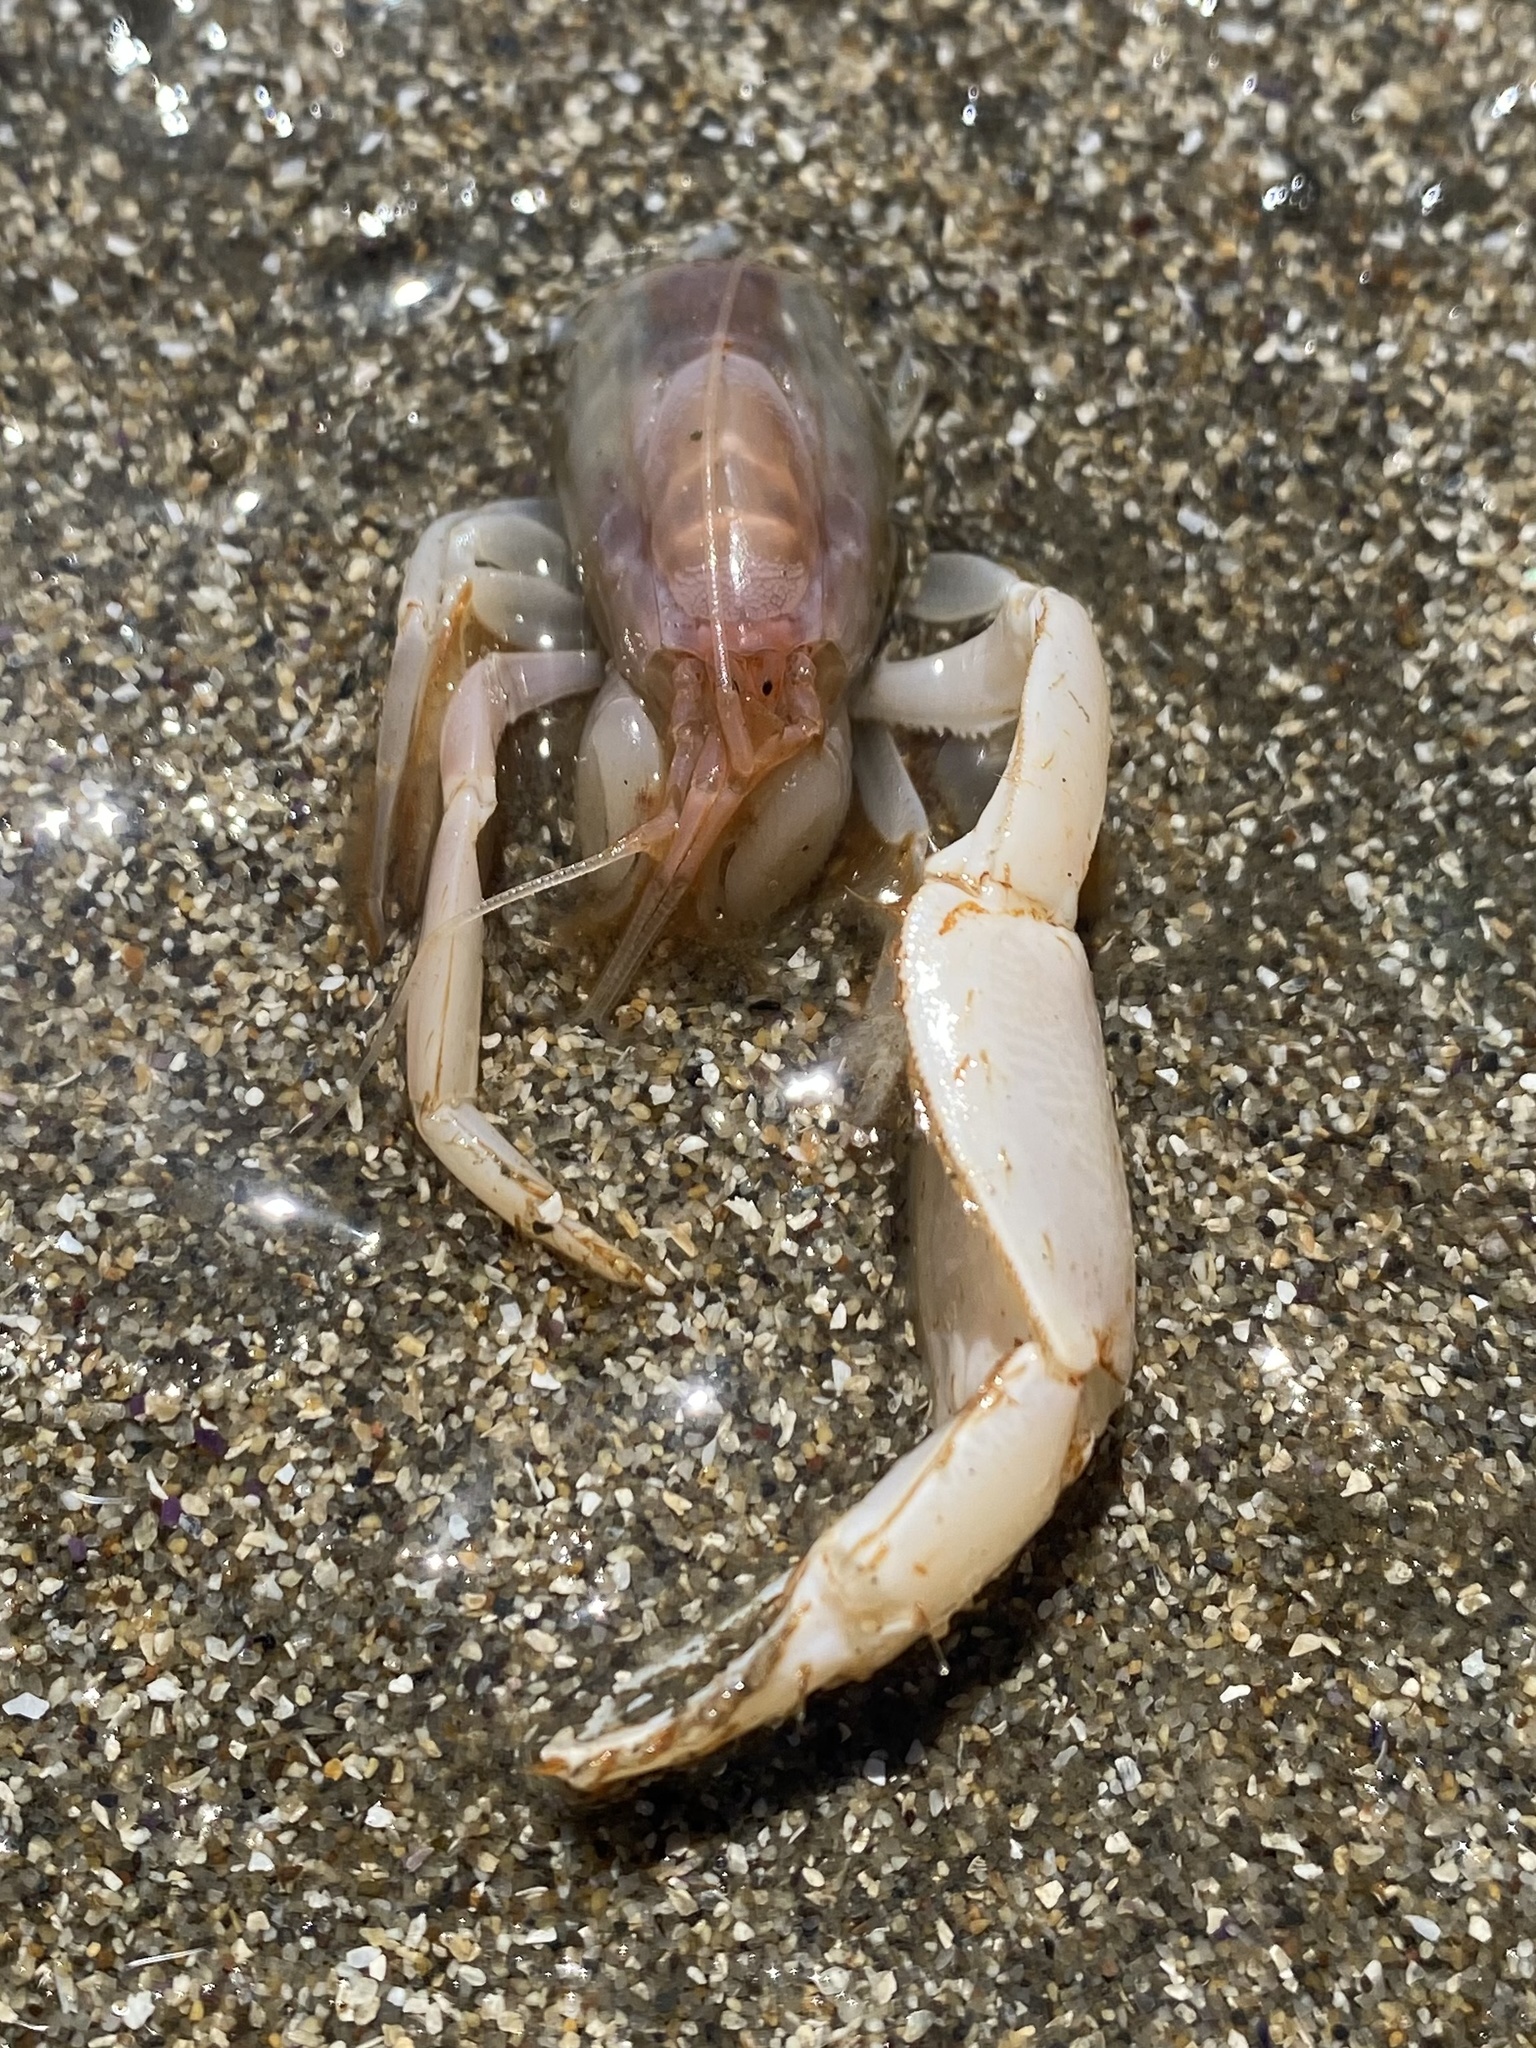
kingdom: Animalia
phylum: Arthropoda
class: Malacostraca
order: Decapoda
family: Callianassidae
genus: Neotrypaea
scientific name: Neotrypaea californiensis
